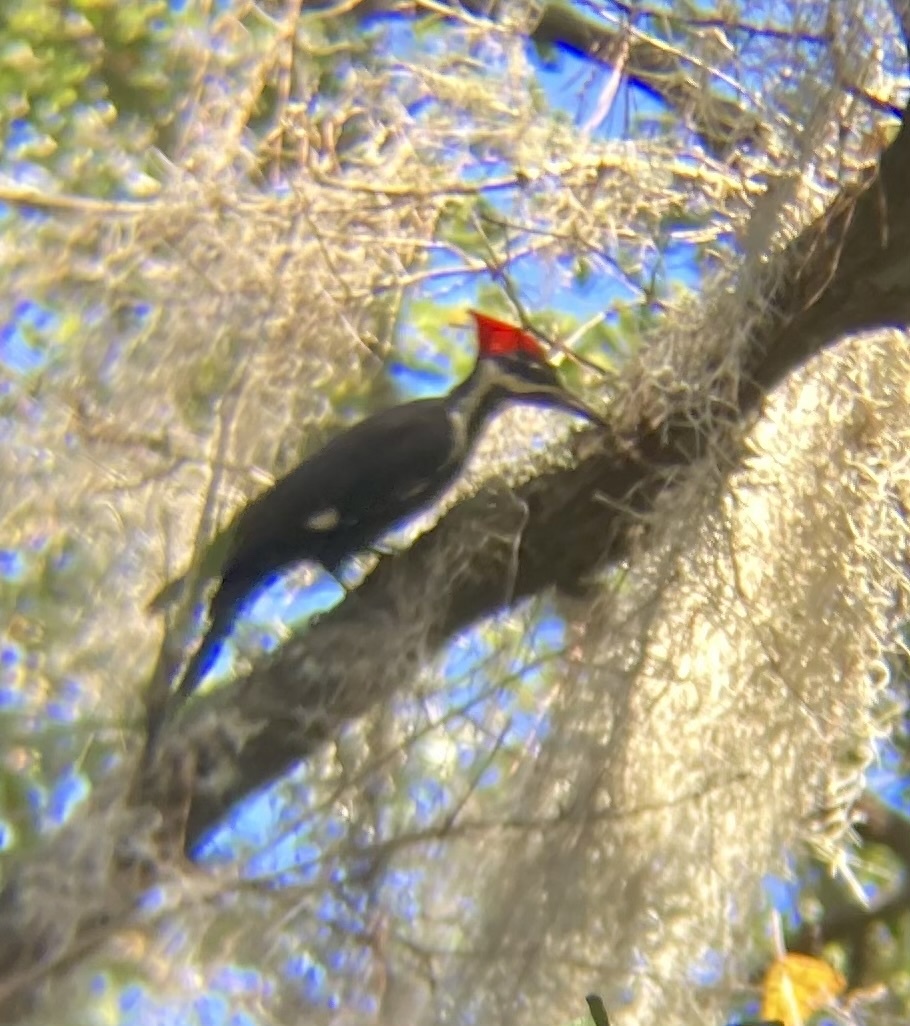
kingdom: Animalia
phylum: Chordata
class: Aves
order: Piciformes
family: Picidae
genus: Dryocopus
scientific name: Dryocopus pileatus
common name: Pileated woodpecker
